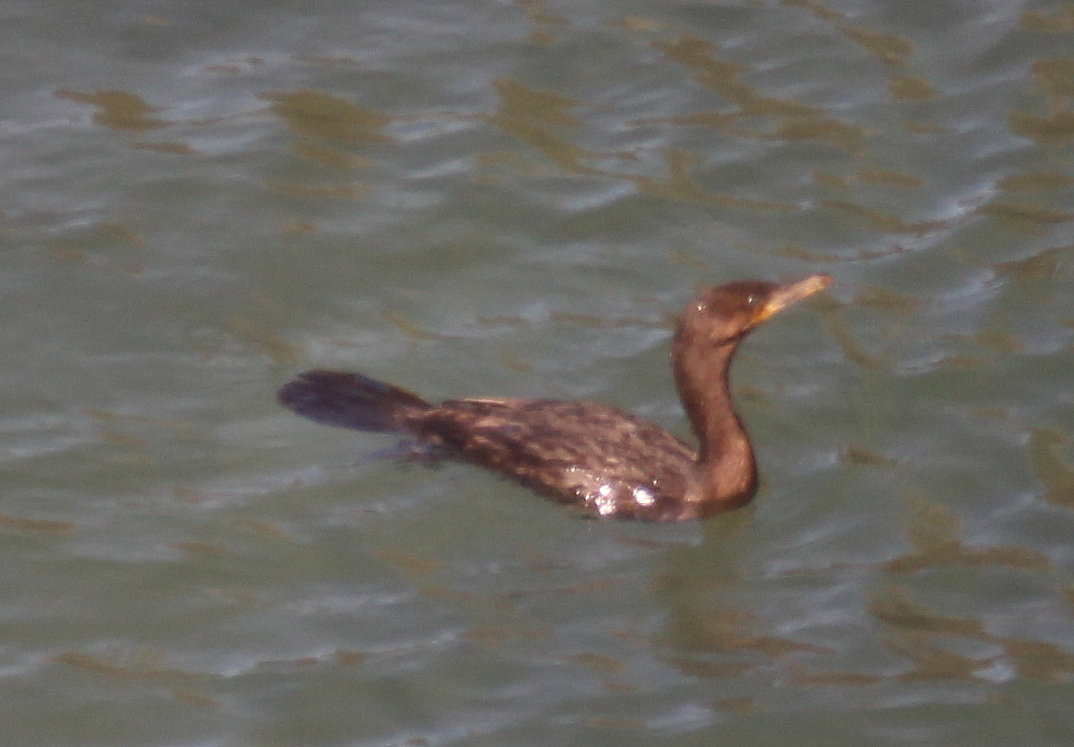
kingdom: Animalia
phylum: Chordata
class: Aves
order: Suliformes
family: Phalacrocoracidae
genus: Phalacrocorax
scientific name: Phalacrocorax brasilianus
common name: Neotropic cormorant
